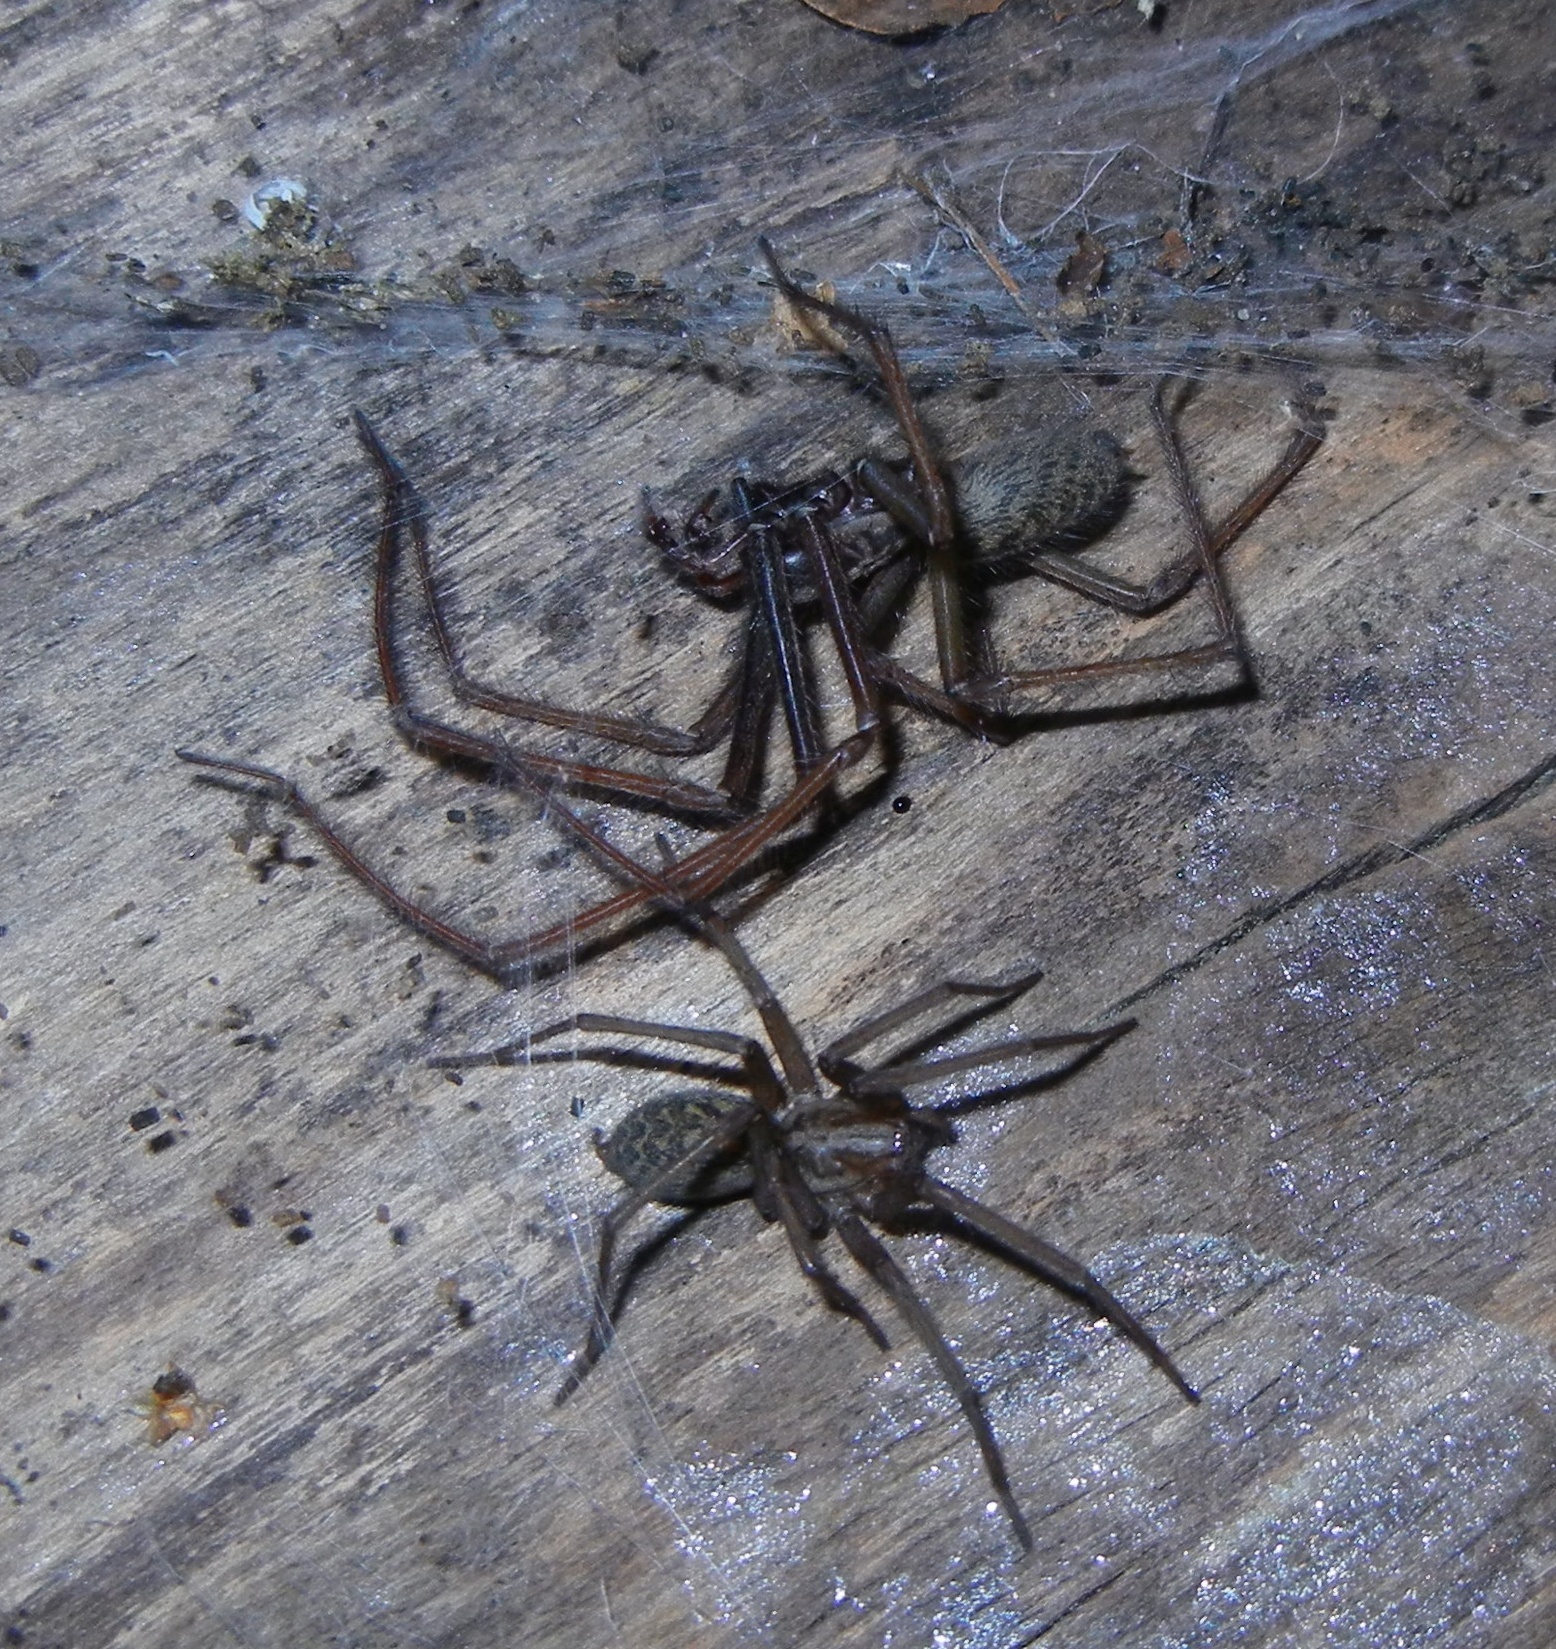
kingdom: Animalia
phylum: Arthropoda
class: Arachnida
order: Araneae
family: Agelenidae
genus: Eratigena
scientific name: Eratigena atrica
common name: Giant house spider
